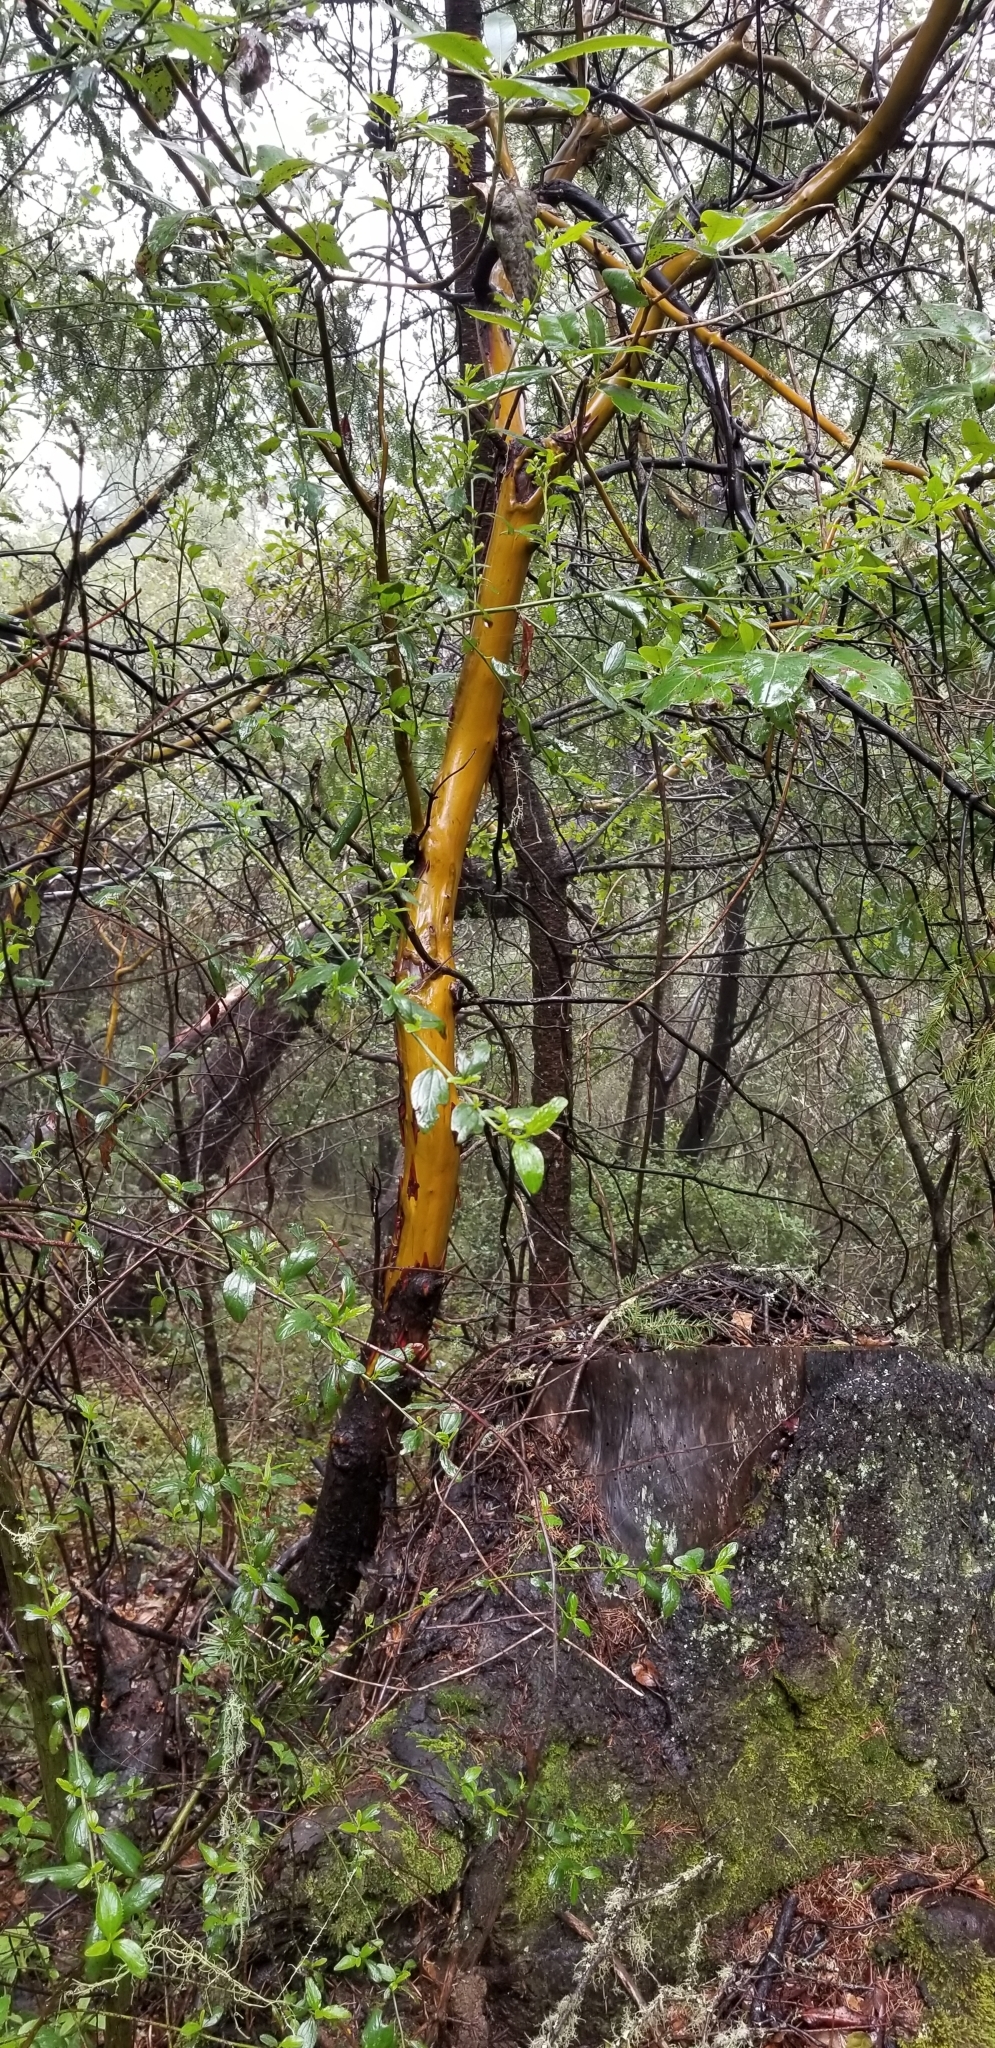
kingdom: Plantae
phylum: Tracheophyta
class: Magnoliopsida
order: Ericales
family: Ericaceae
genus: Arbutus
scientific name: Arbutus menziesii
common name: Pacific madrone
